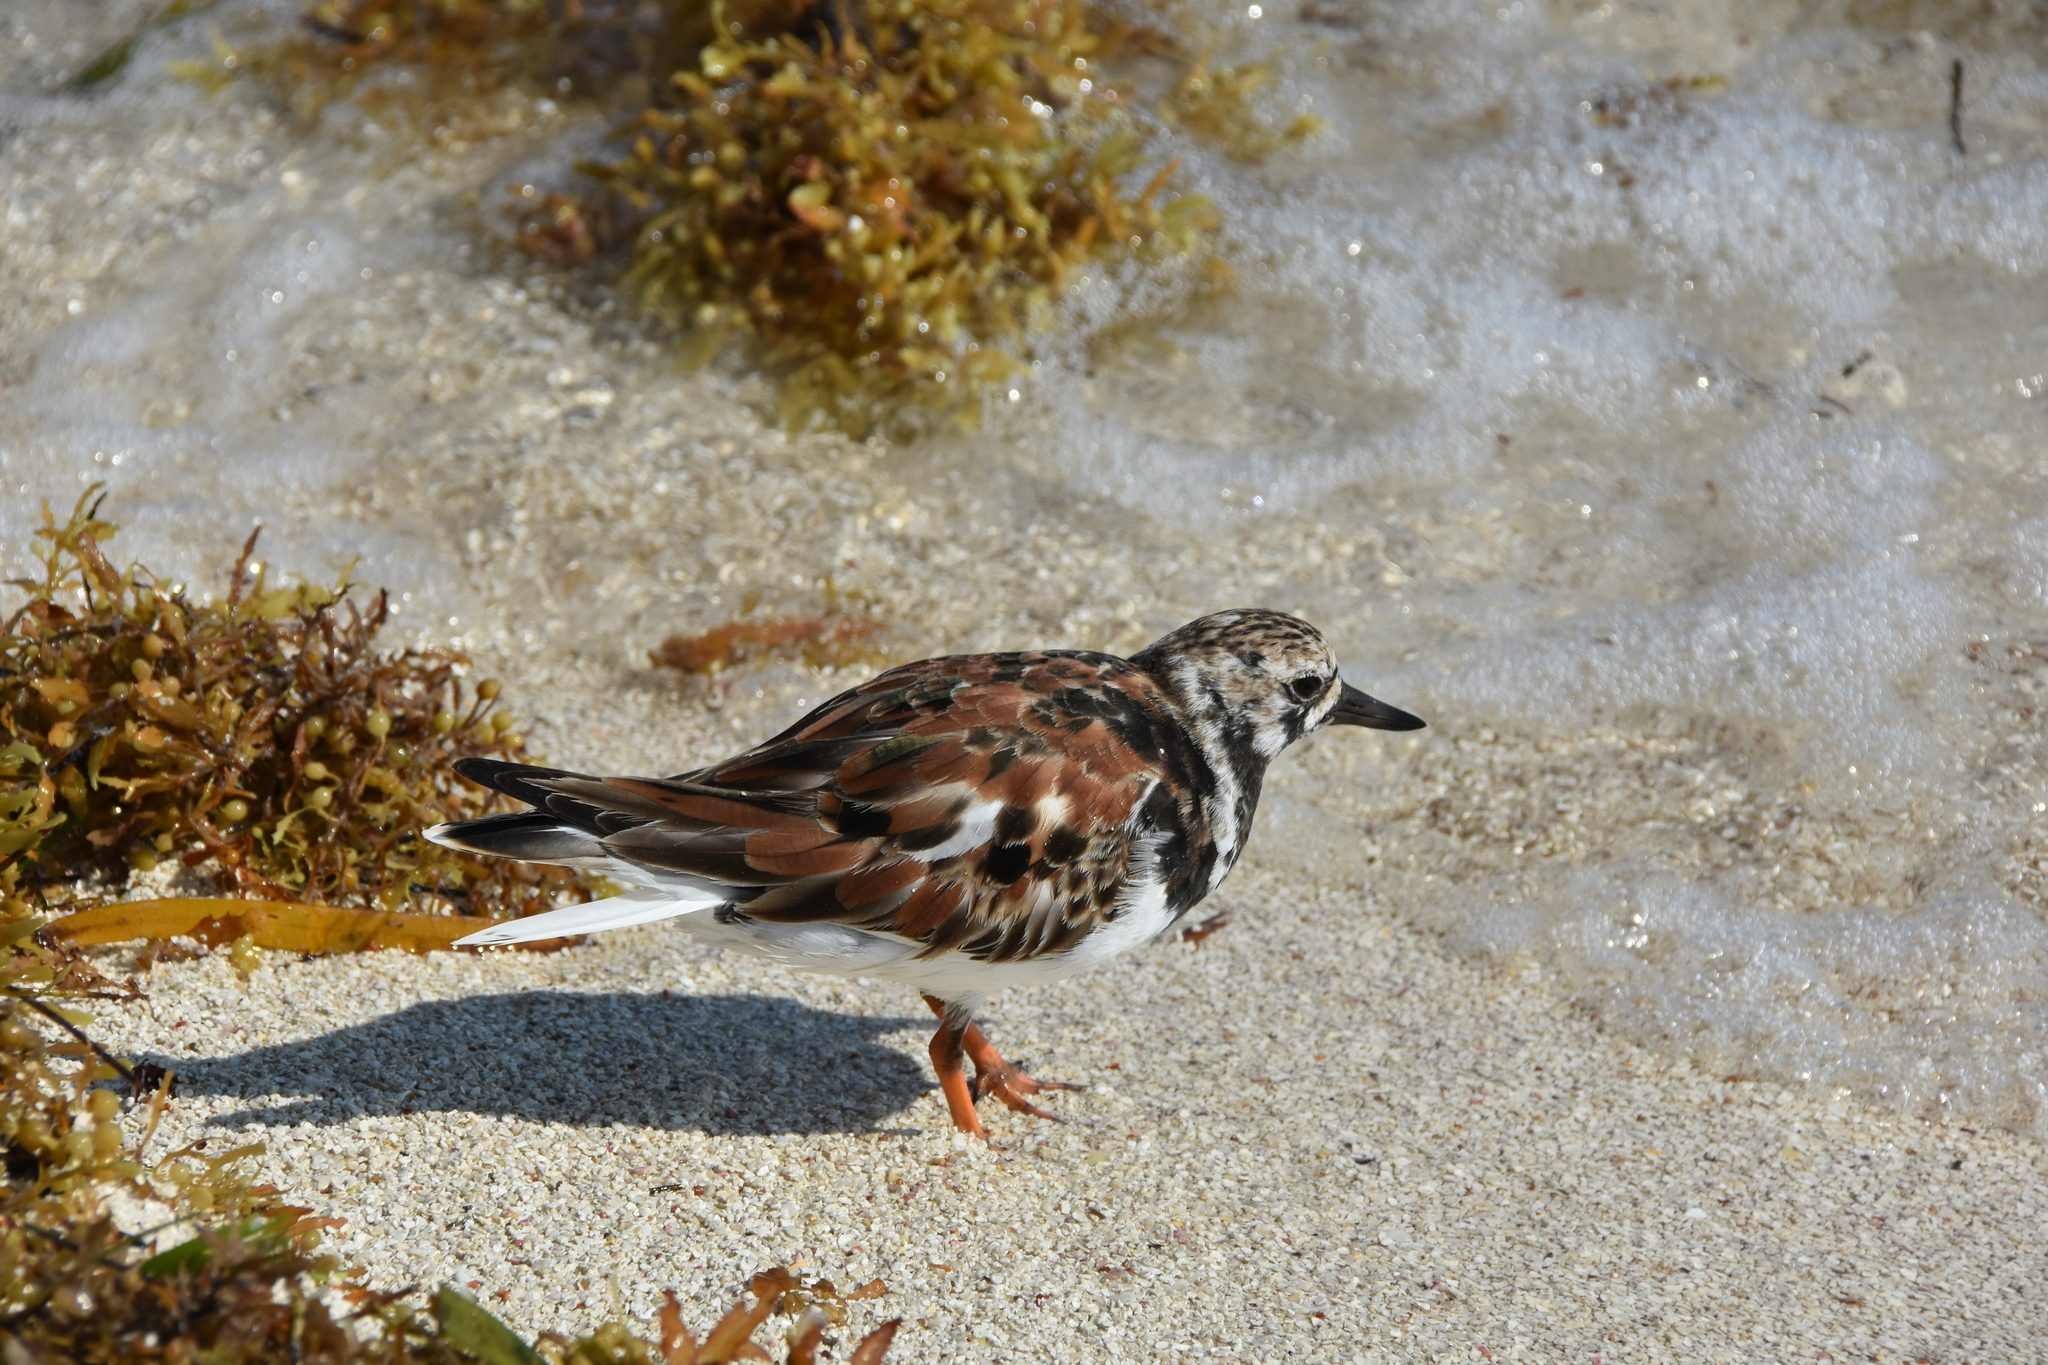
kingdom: Animalia
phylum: Chordata
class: Aves
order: Charadriiformes
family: Scolopacidae
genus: Arenaria
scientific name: Arenaria interpres
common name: Ruddy turnstone
